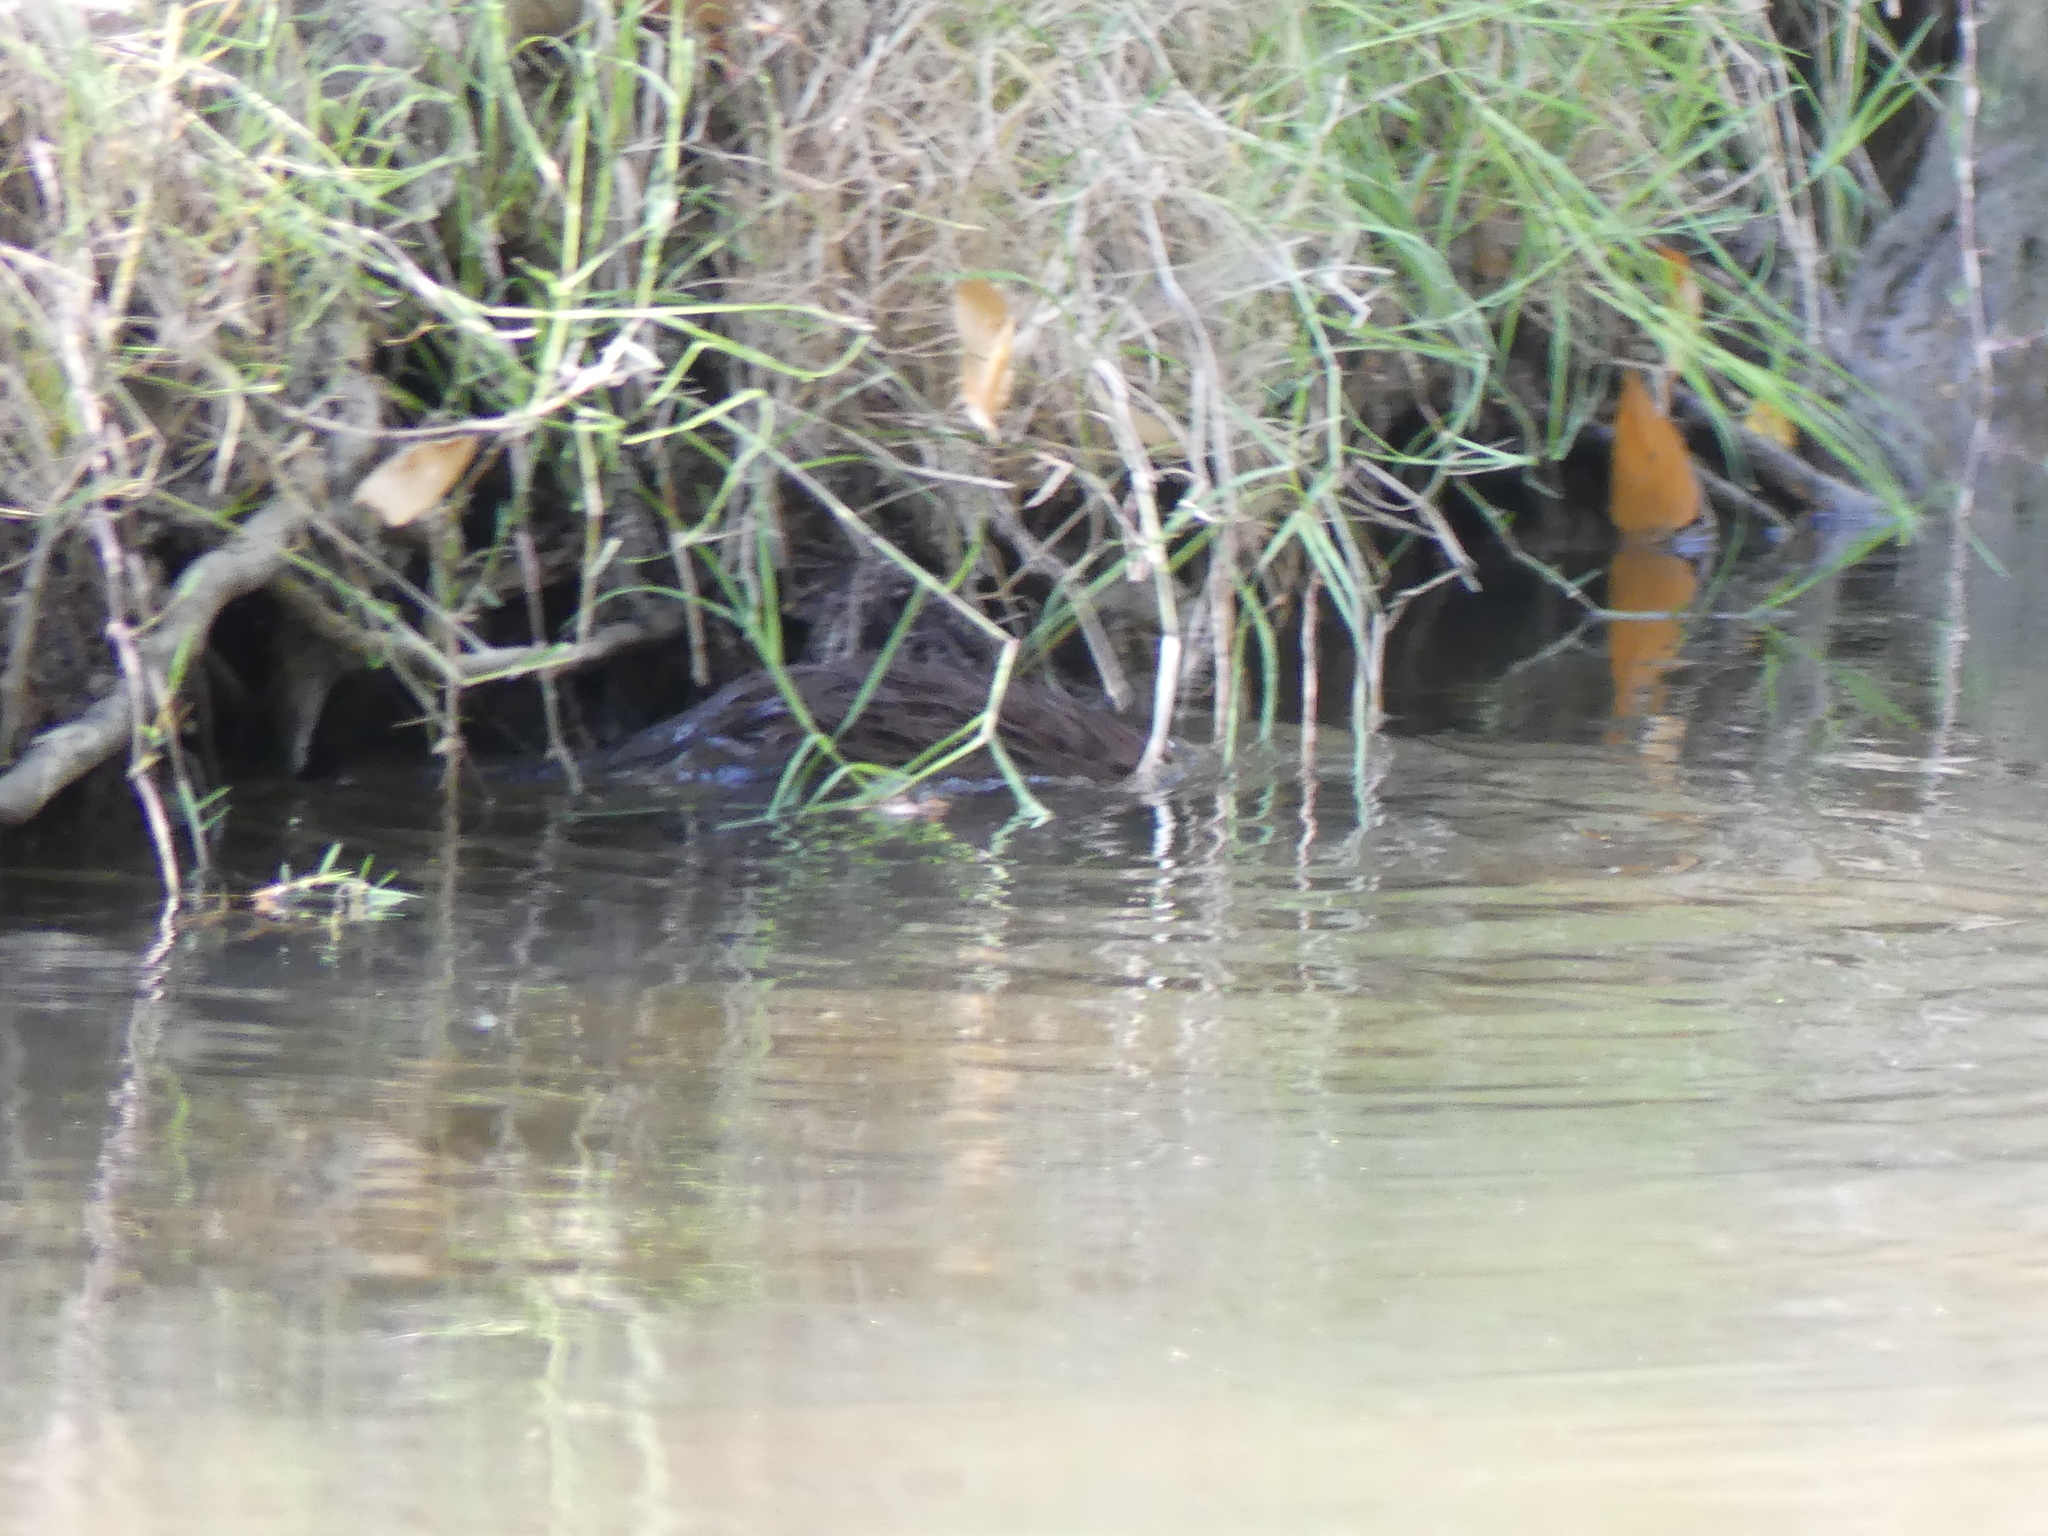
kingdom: Animalia
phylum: Chordata
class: Mammalia
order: Carnivora
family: Mustelidae
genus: Mustela
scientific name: Mustela
